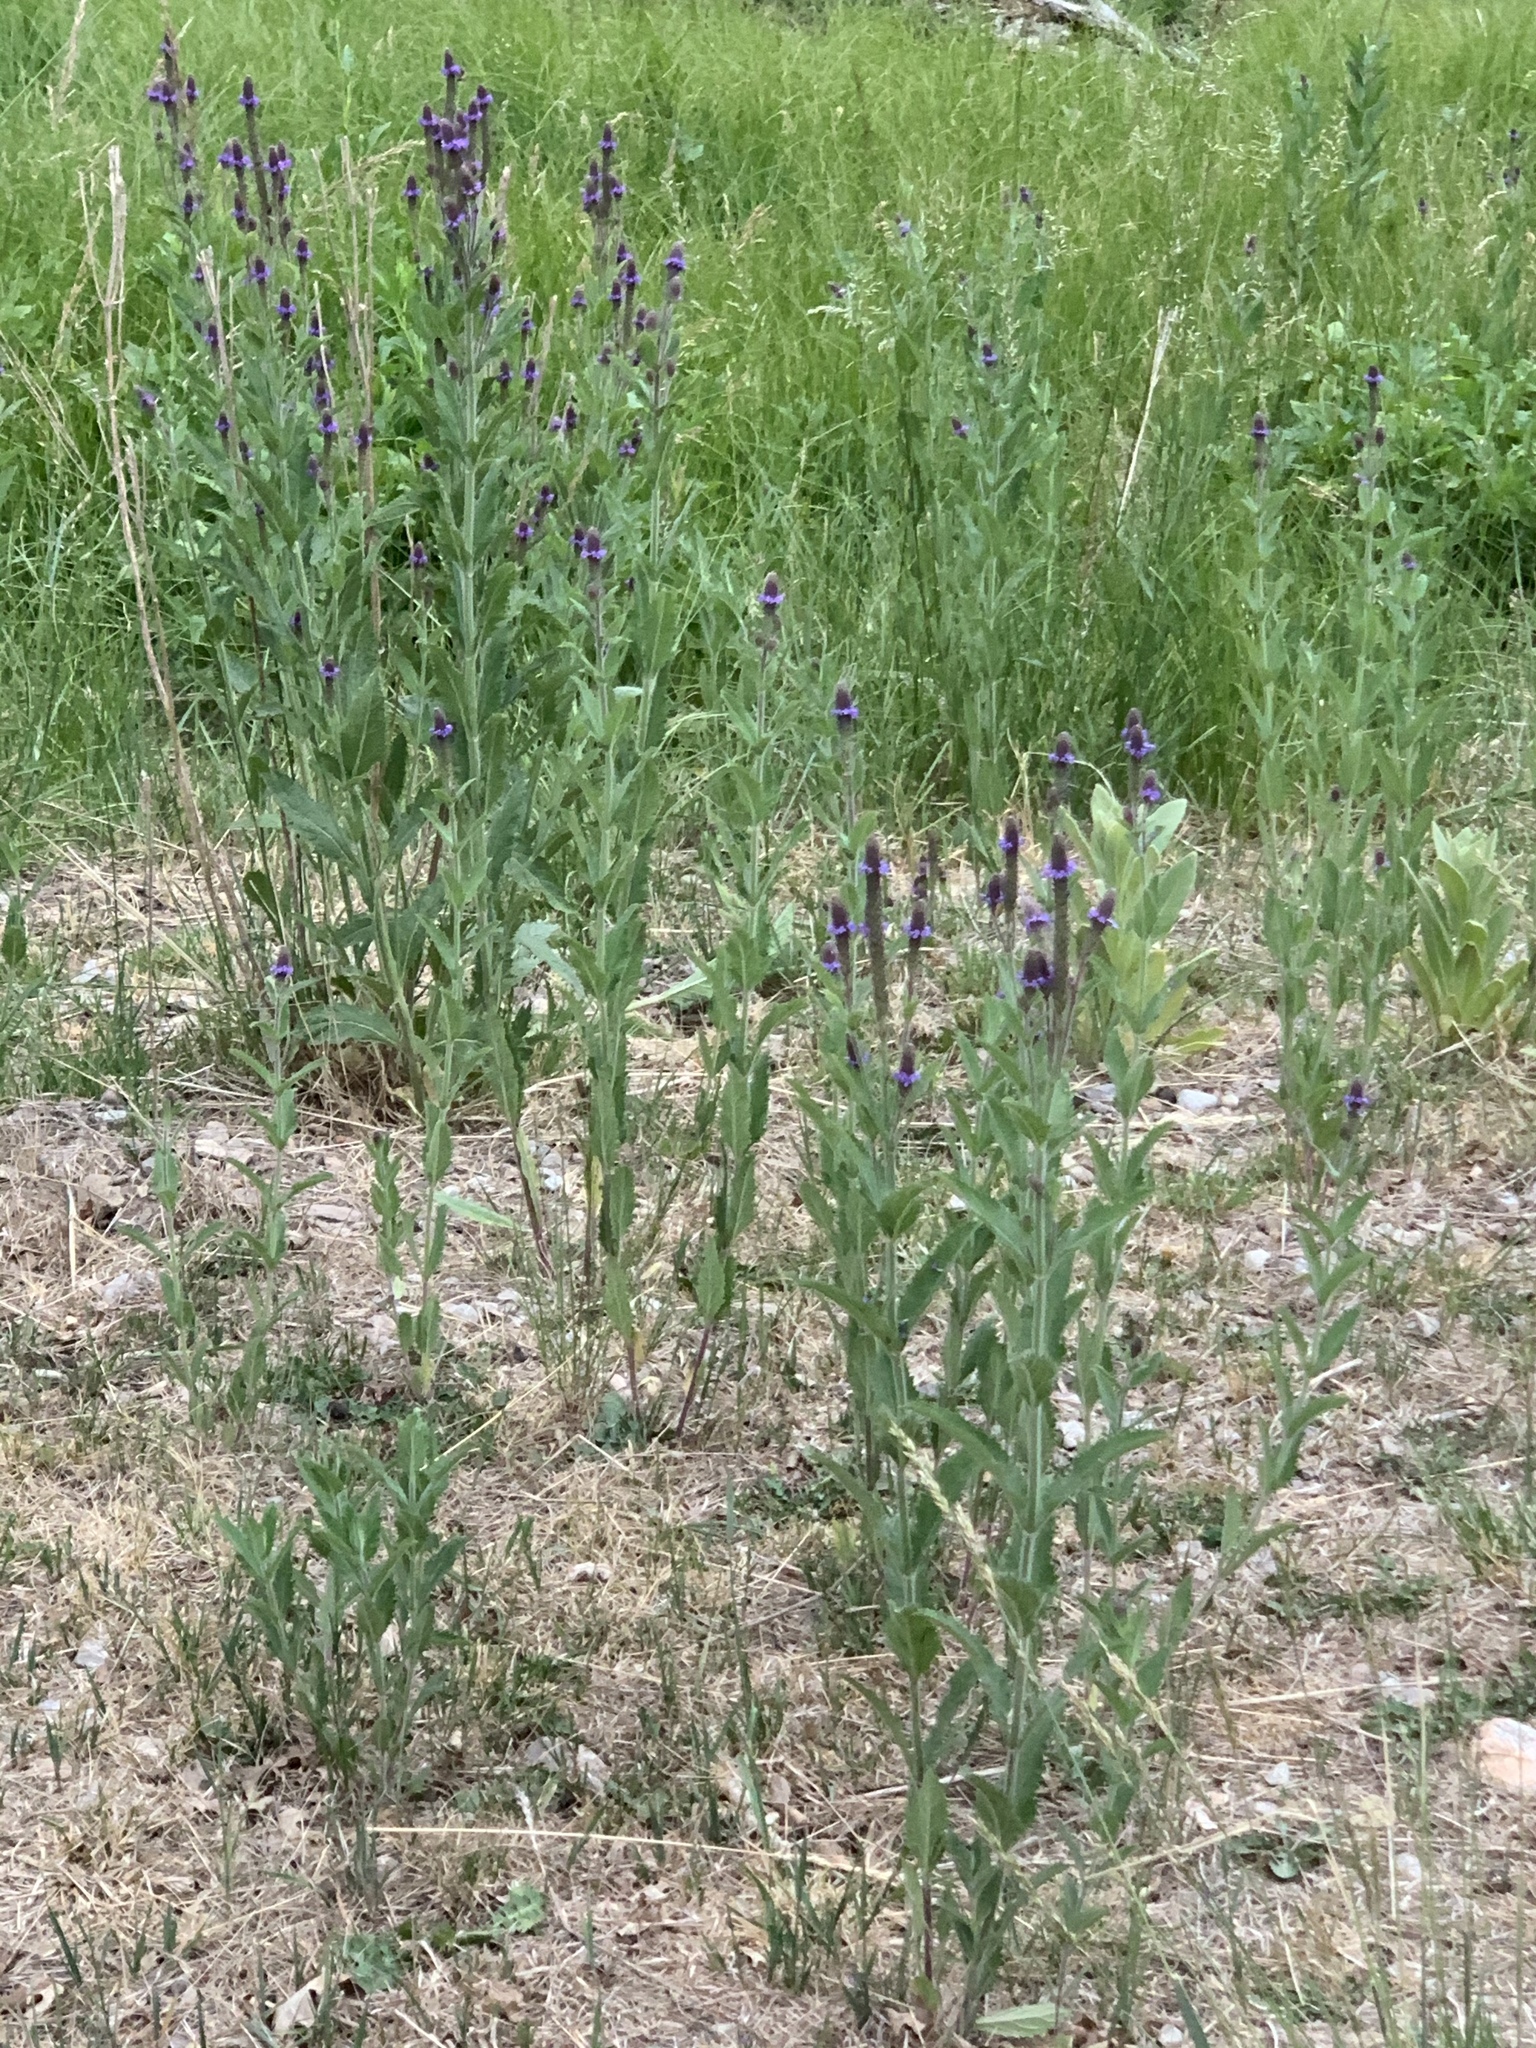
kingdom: Plantae
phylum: Tracheophyta
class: Magnoliopsida
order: Lamiales
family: Verbenaceae
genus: Verbena
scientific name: Verbena macdougalii
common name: New mexico vervain
